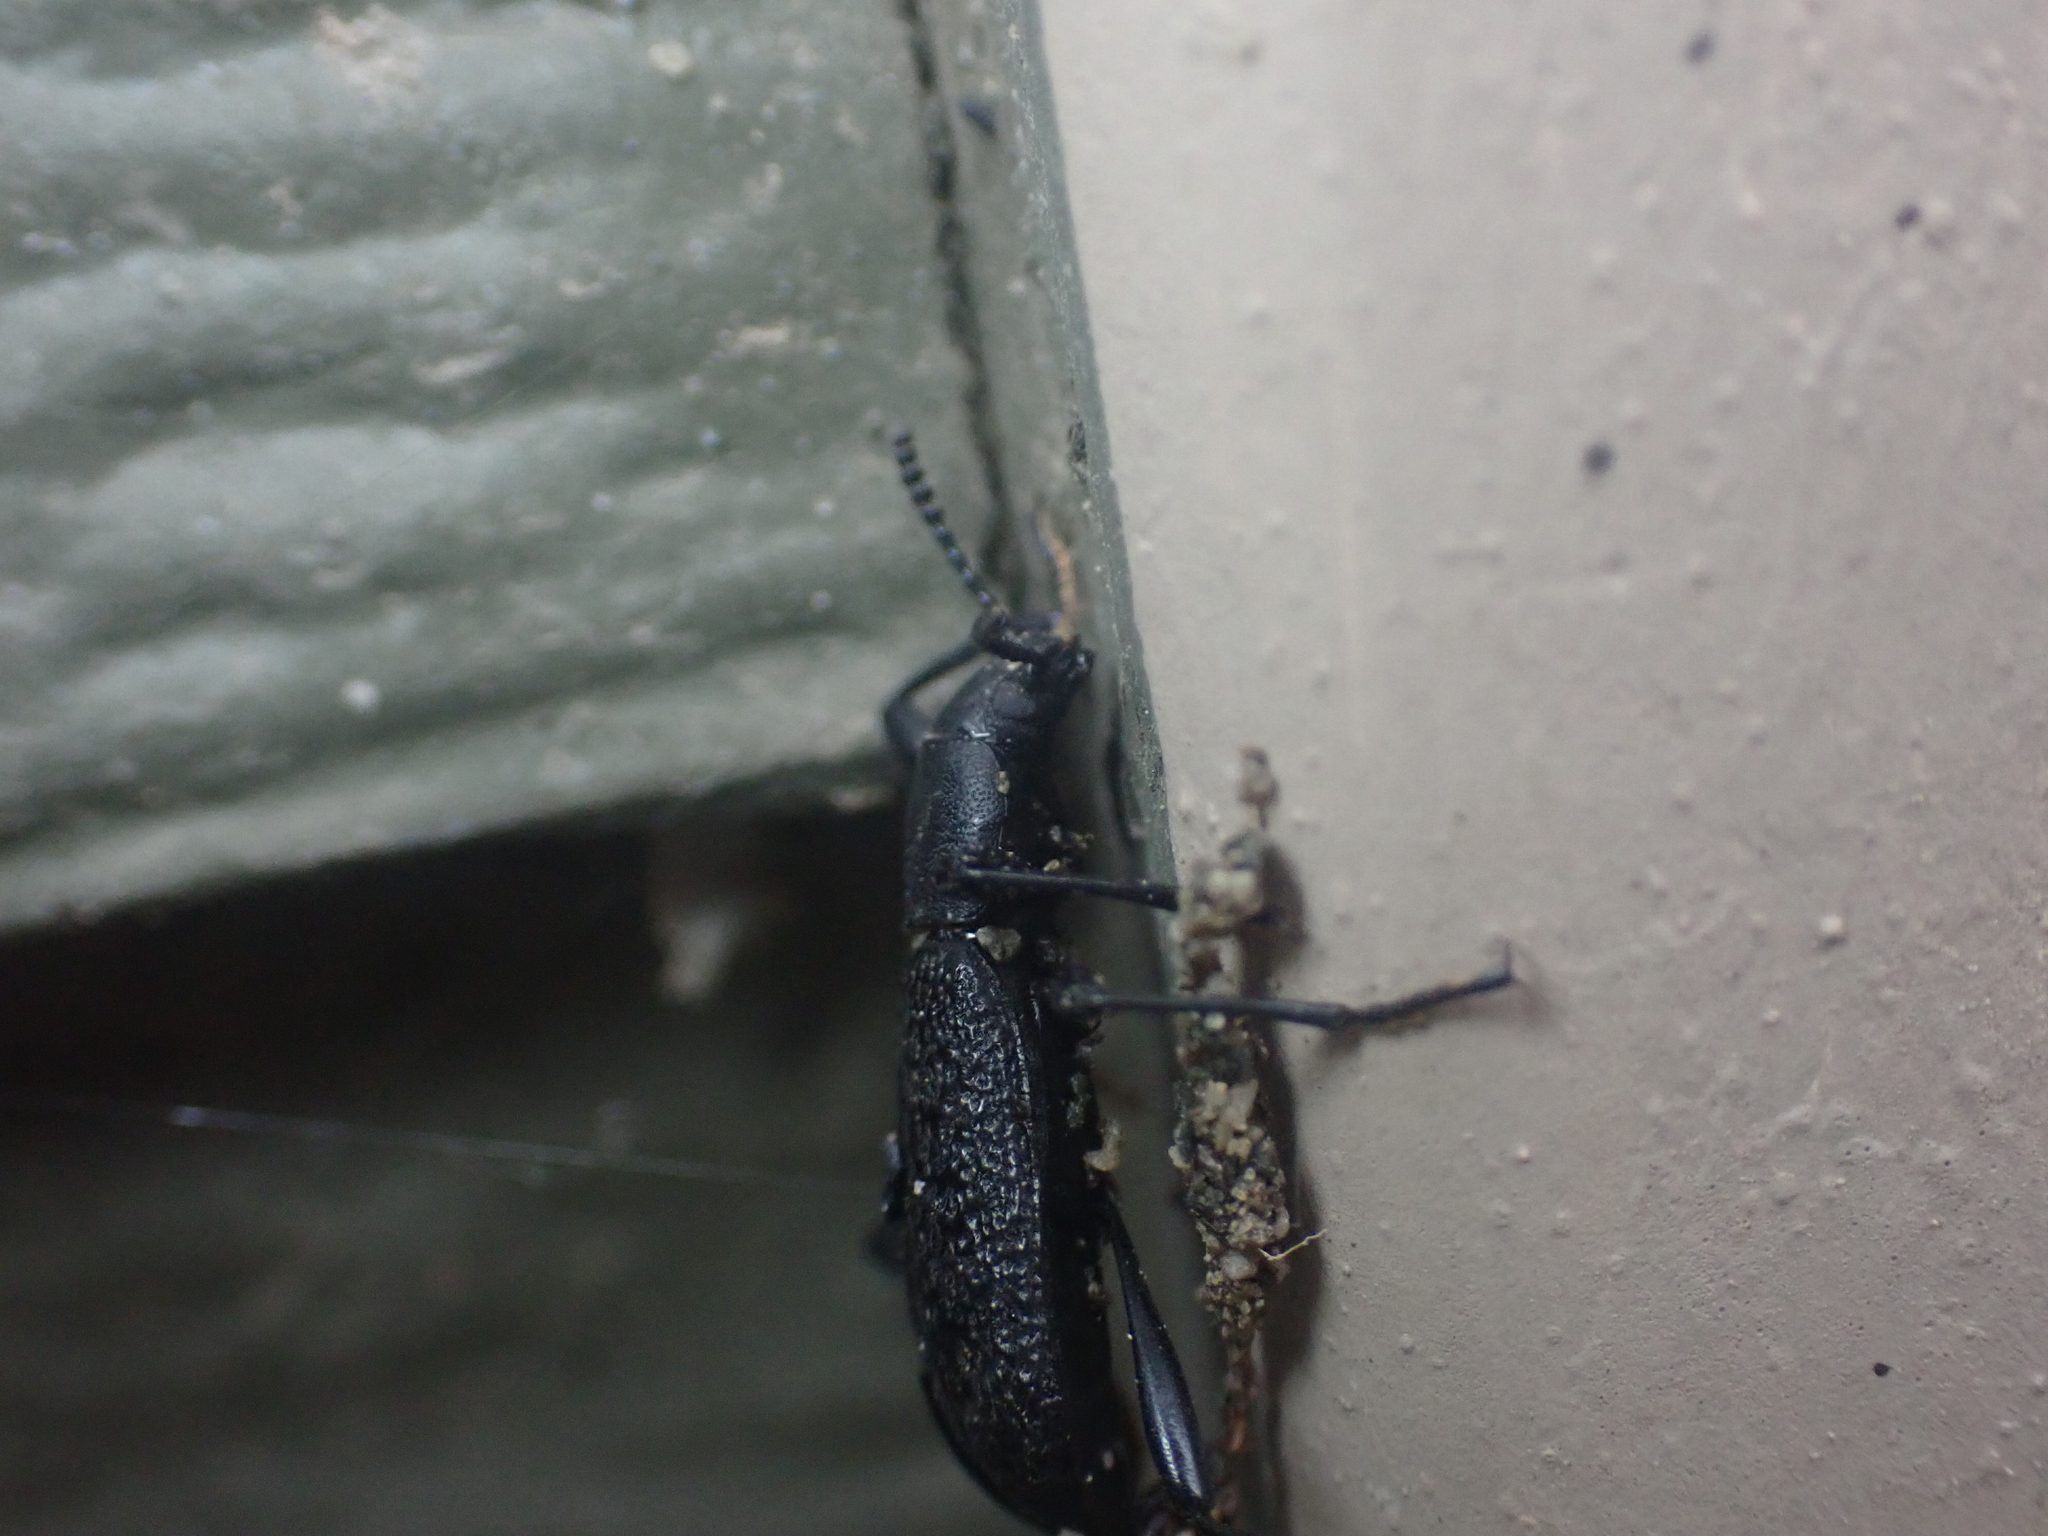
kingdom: Animalia
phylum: Arthropoda
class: Insecta
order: Coleoptera
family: Tenebrionidae
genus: Upis
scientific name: Upis ceramboides
